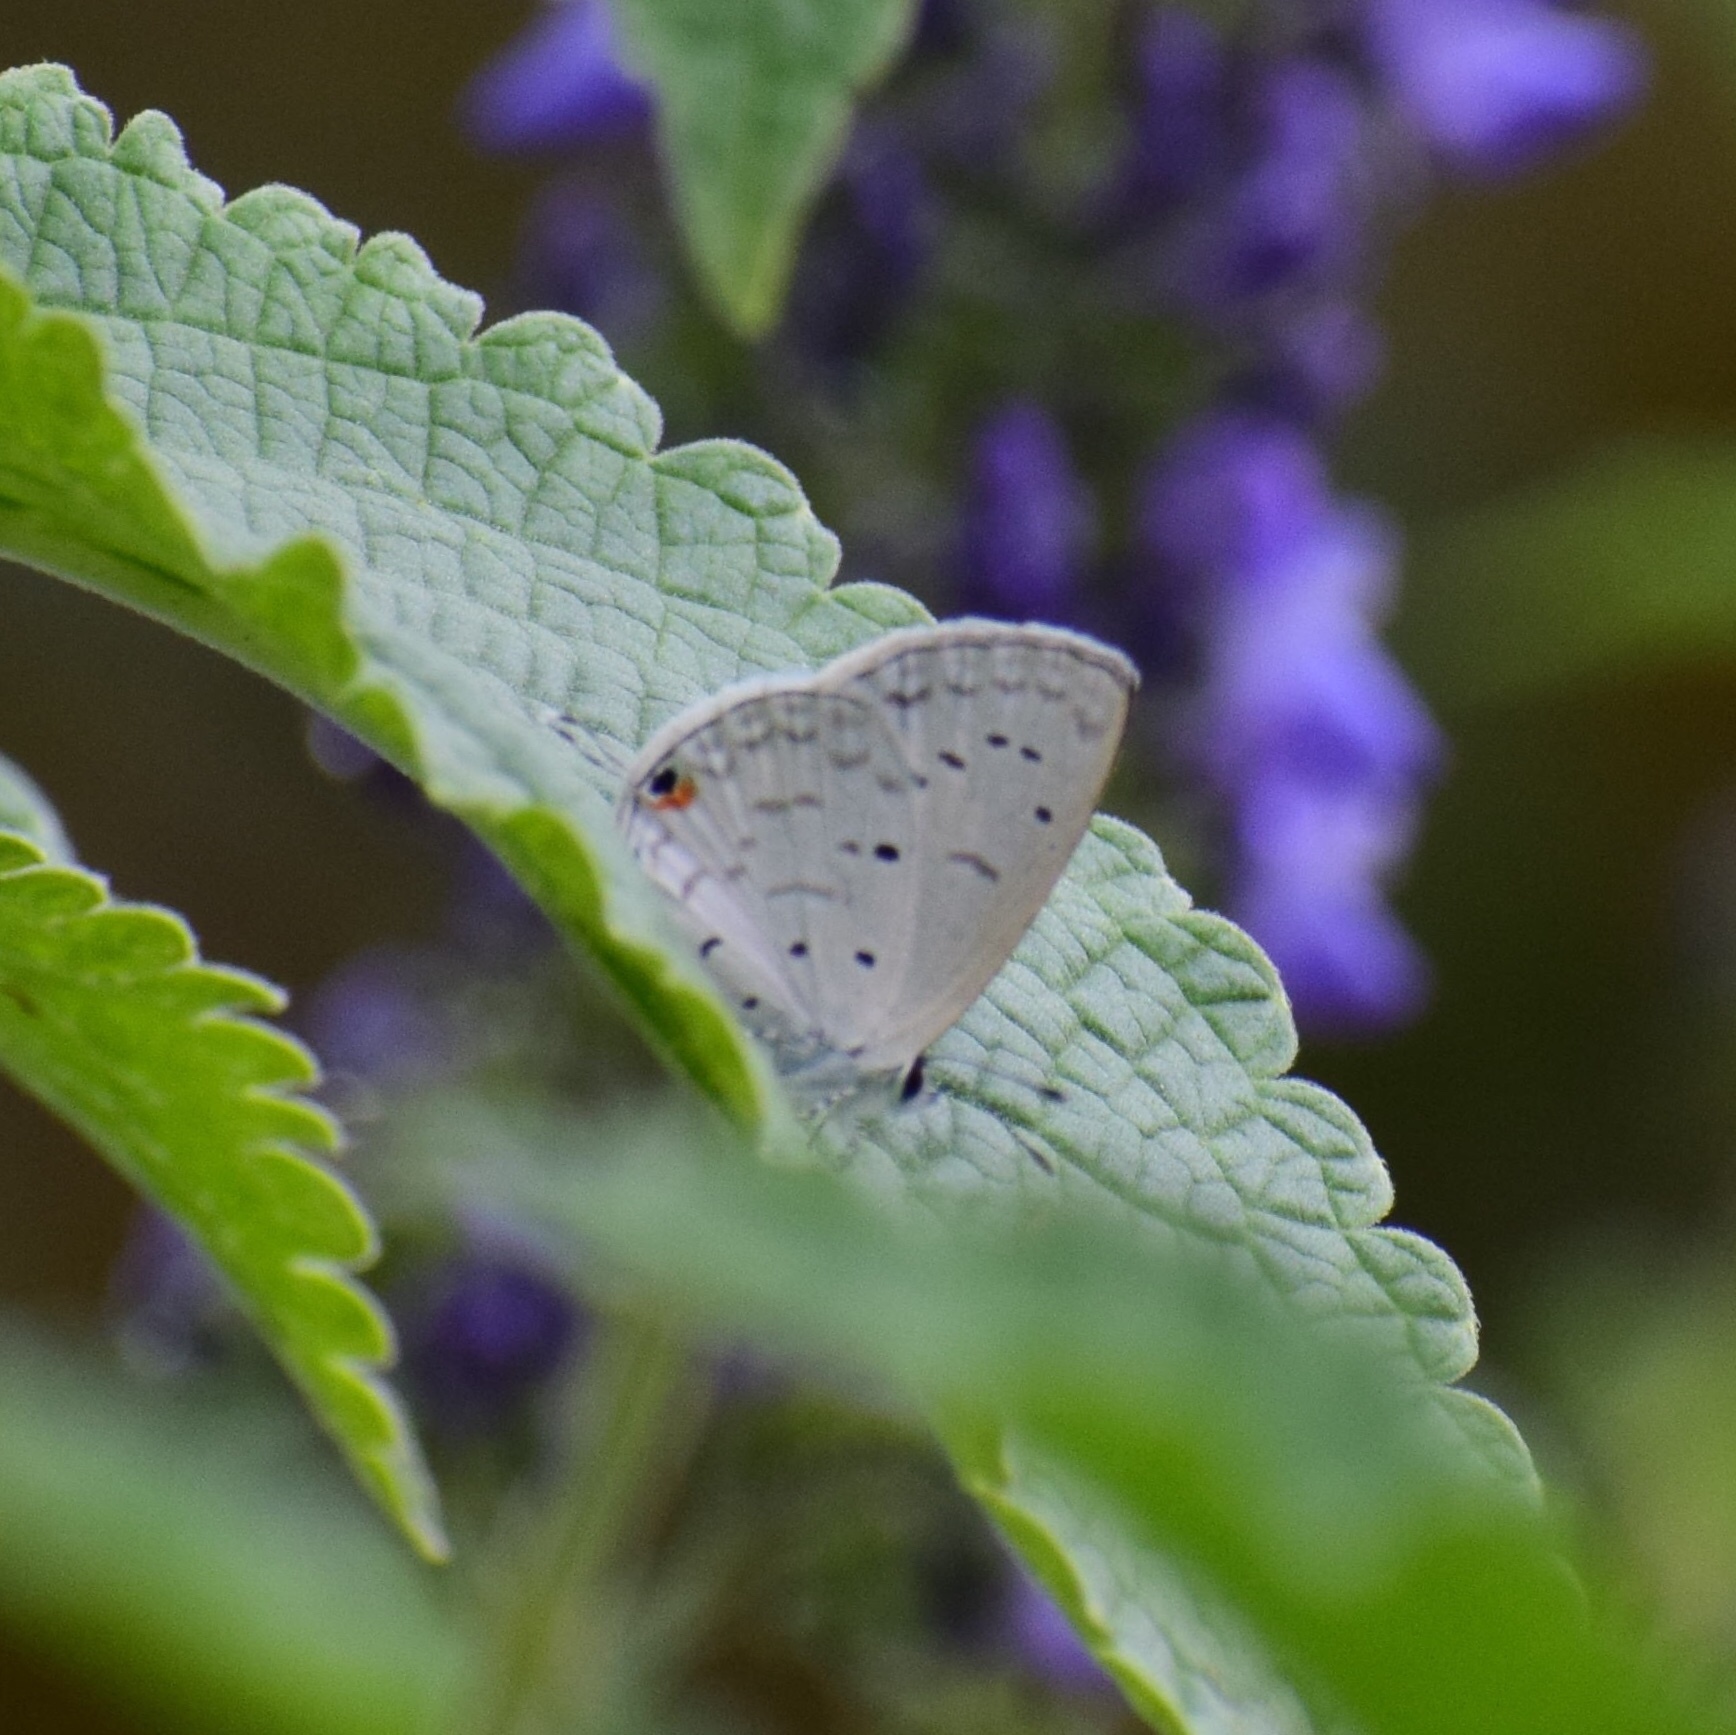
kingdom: Animalia
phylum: Arthropoda
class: Insecta
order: Lepidoptera
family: Lycaenidae
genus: Eicochrysops
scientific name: Eicochrysops hippocrates
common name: White-tipped blue
